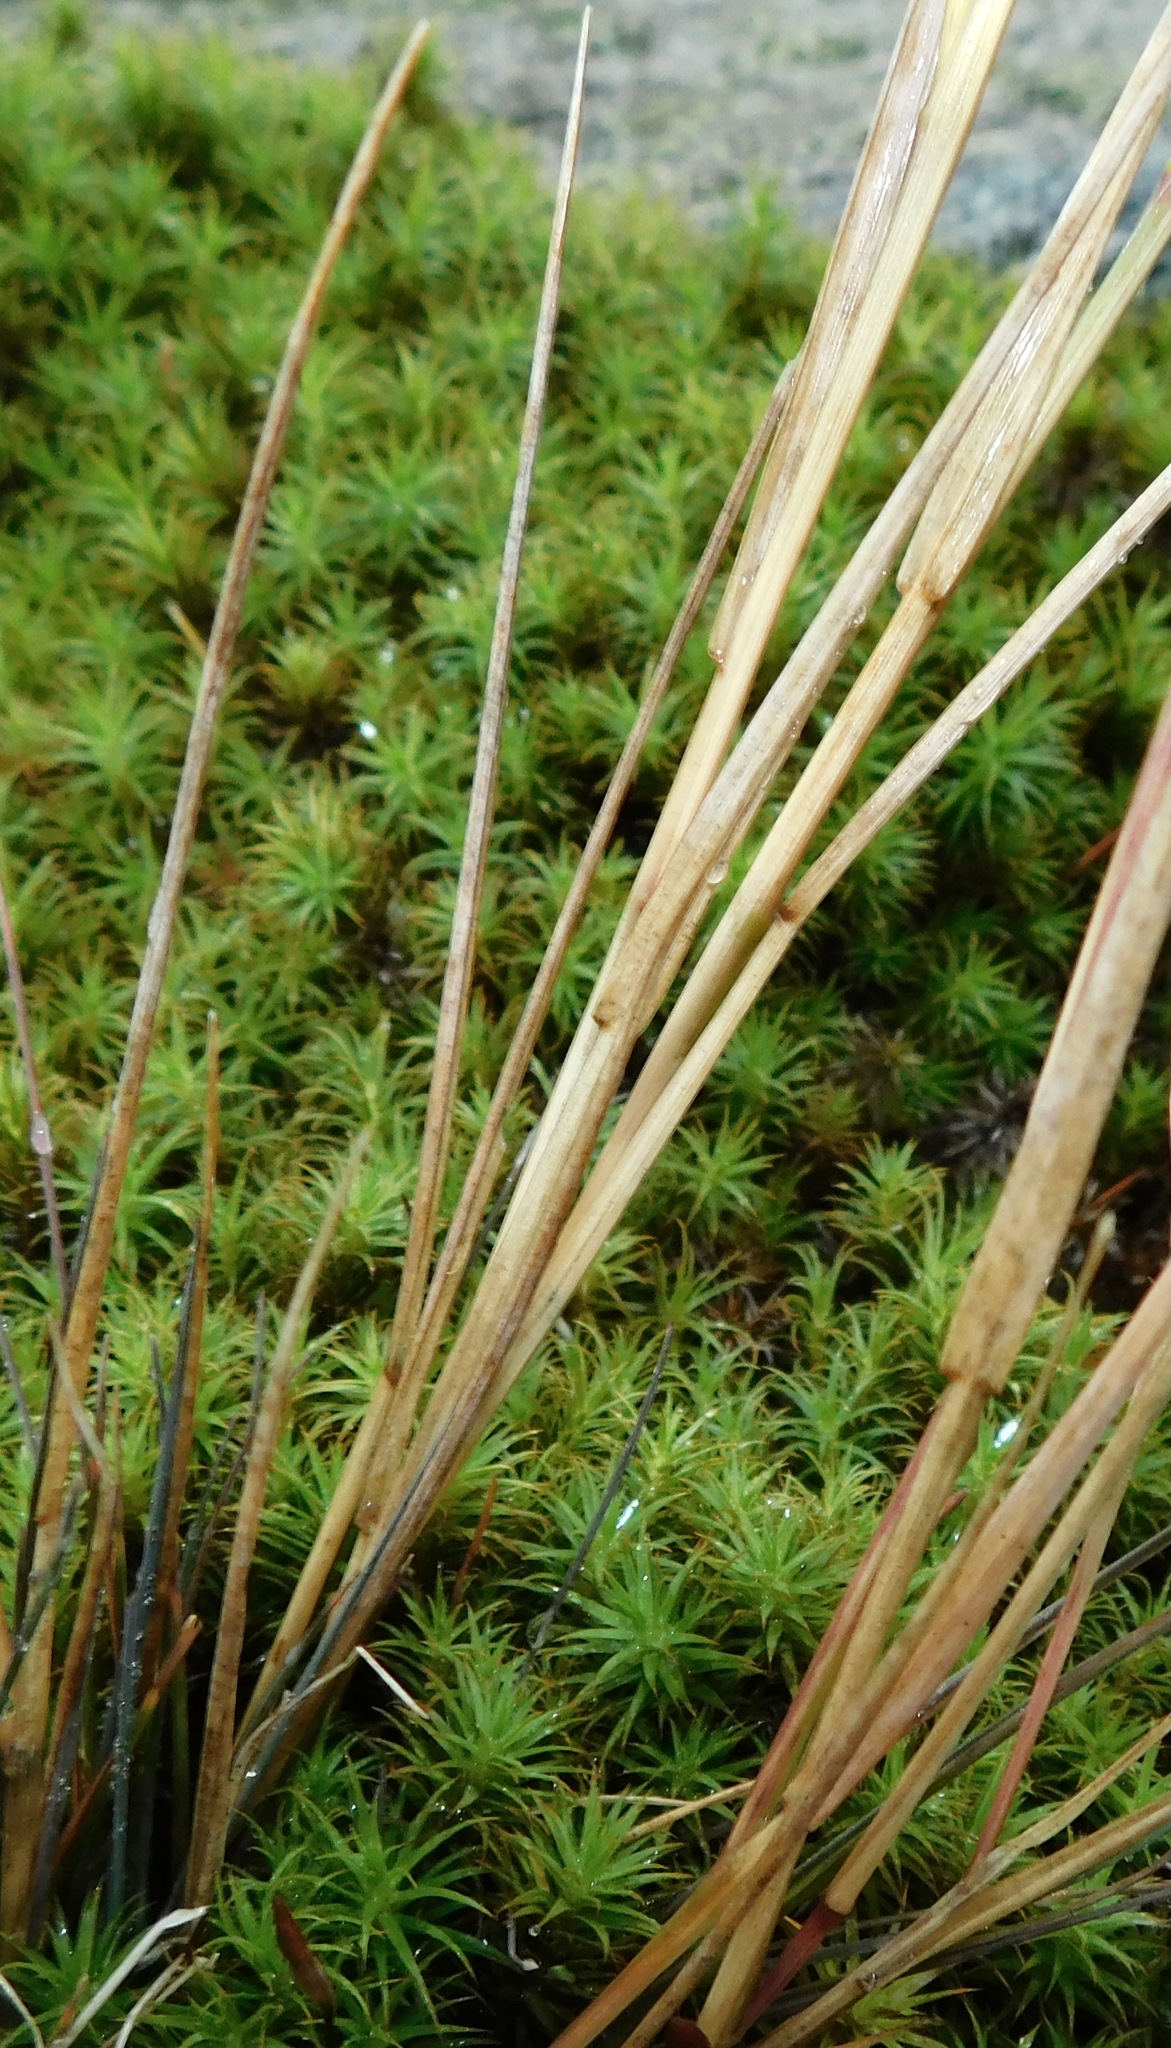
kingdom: Plantae
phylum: Tracheophyta
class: Liliopsida
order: Poales
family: Poaceae
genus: Agrostis
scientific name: Agrostis scabra
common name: Rough bent
